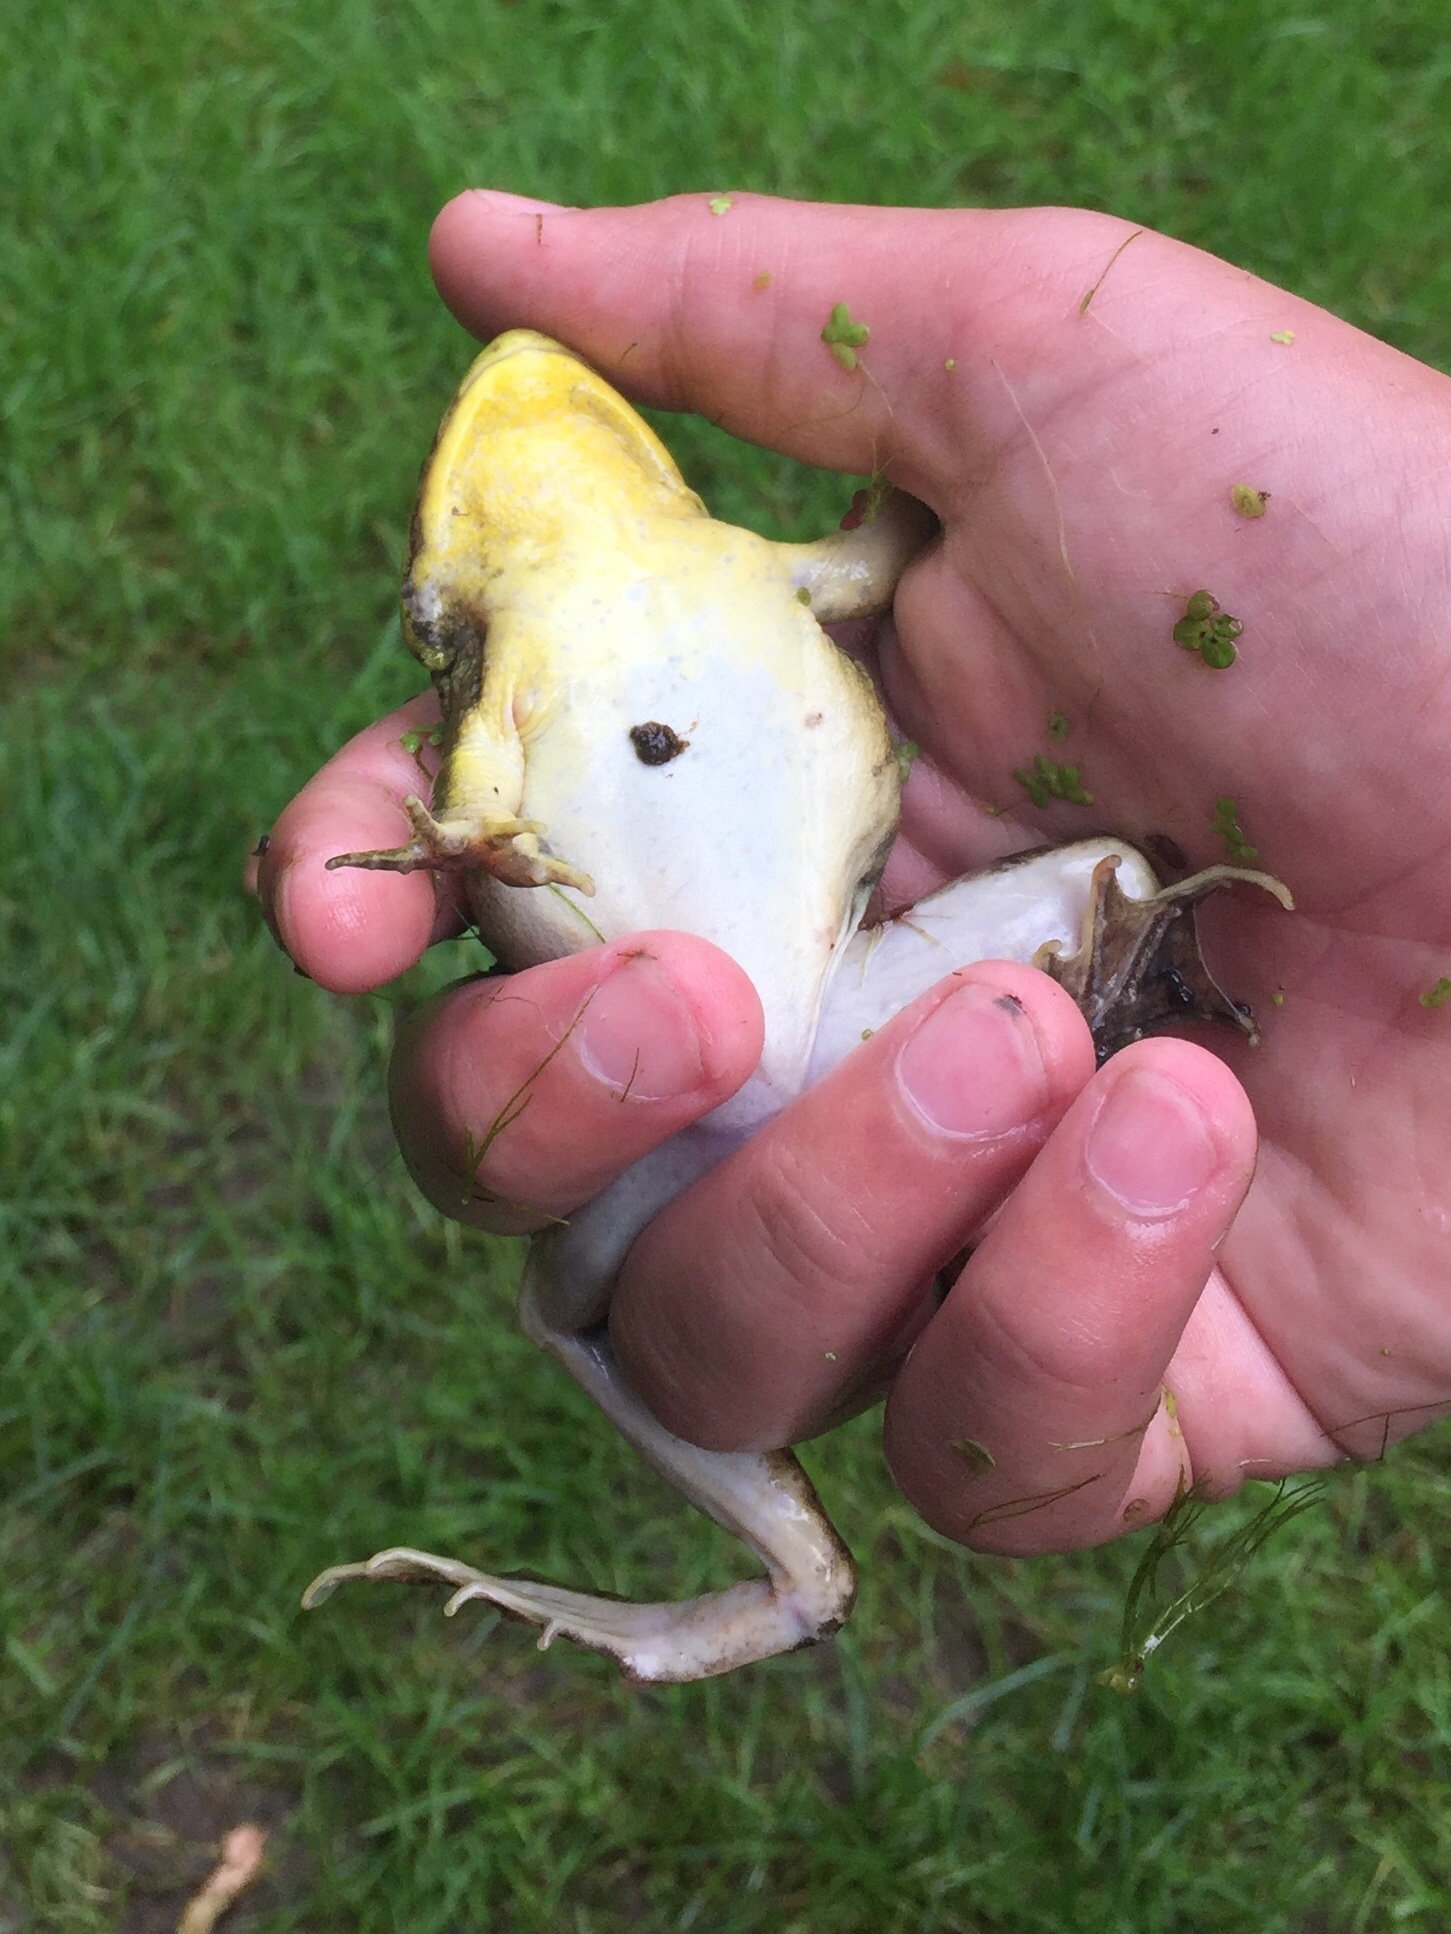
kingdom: Animalia
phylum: Chordata
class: Amphibia
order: Anura
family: Ranidae
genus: Lithobates
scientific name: Lithobates
